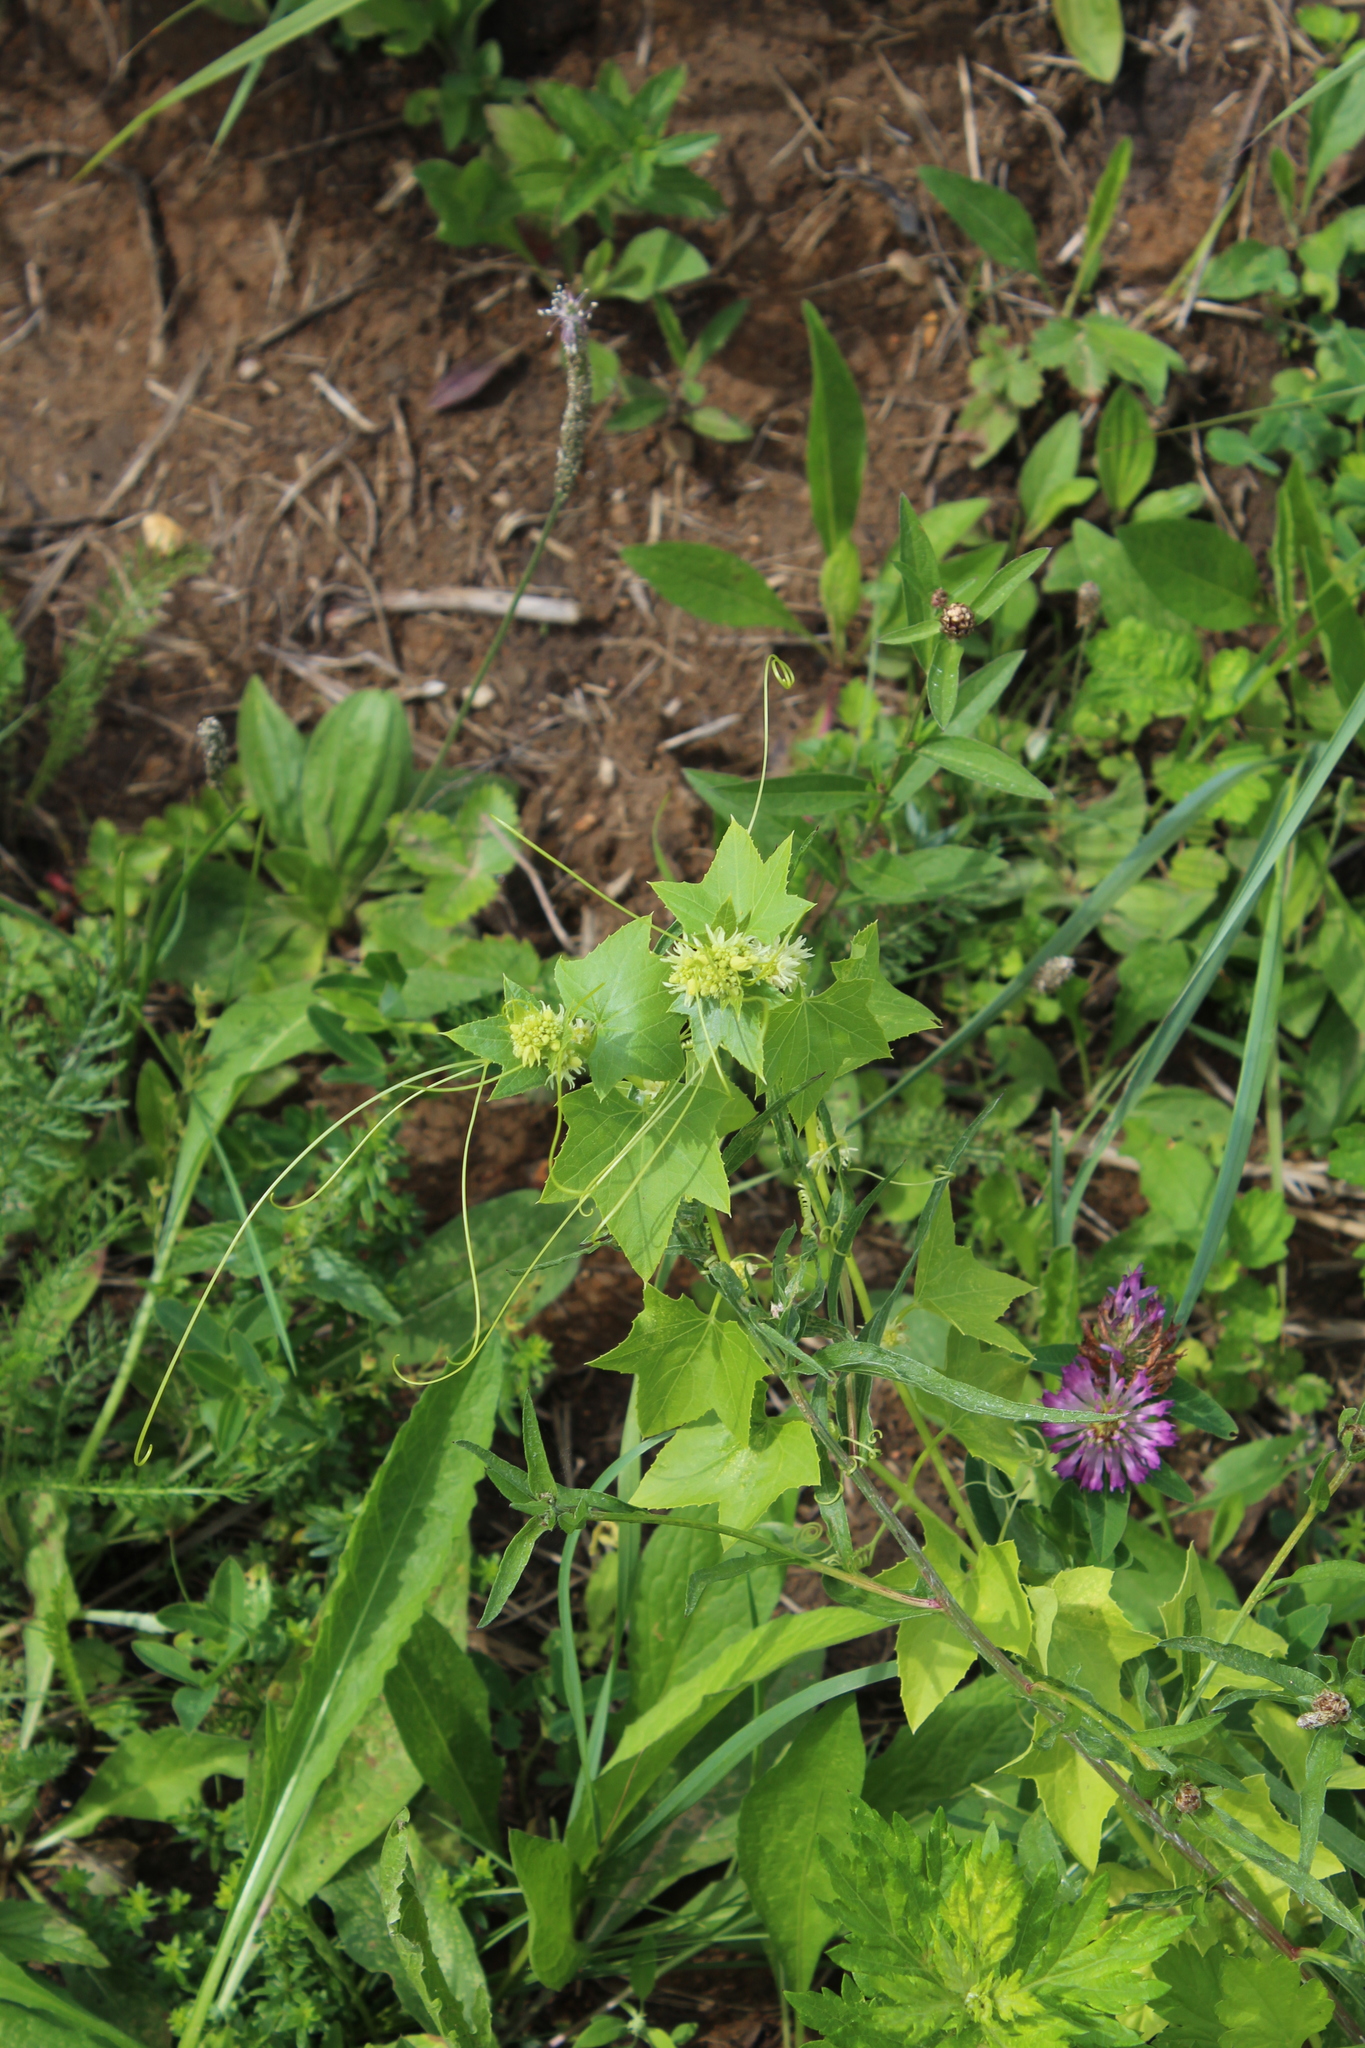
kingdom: Plantae
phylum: Tracheophyta
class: Magnoliopsida
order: Cucurbitales
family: Cucurbitaceae
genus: Echinocystis
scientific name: Echinocystis lobata
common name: Wild cucumber
